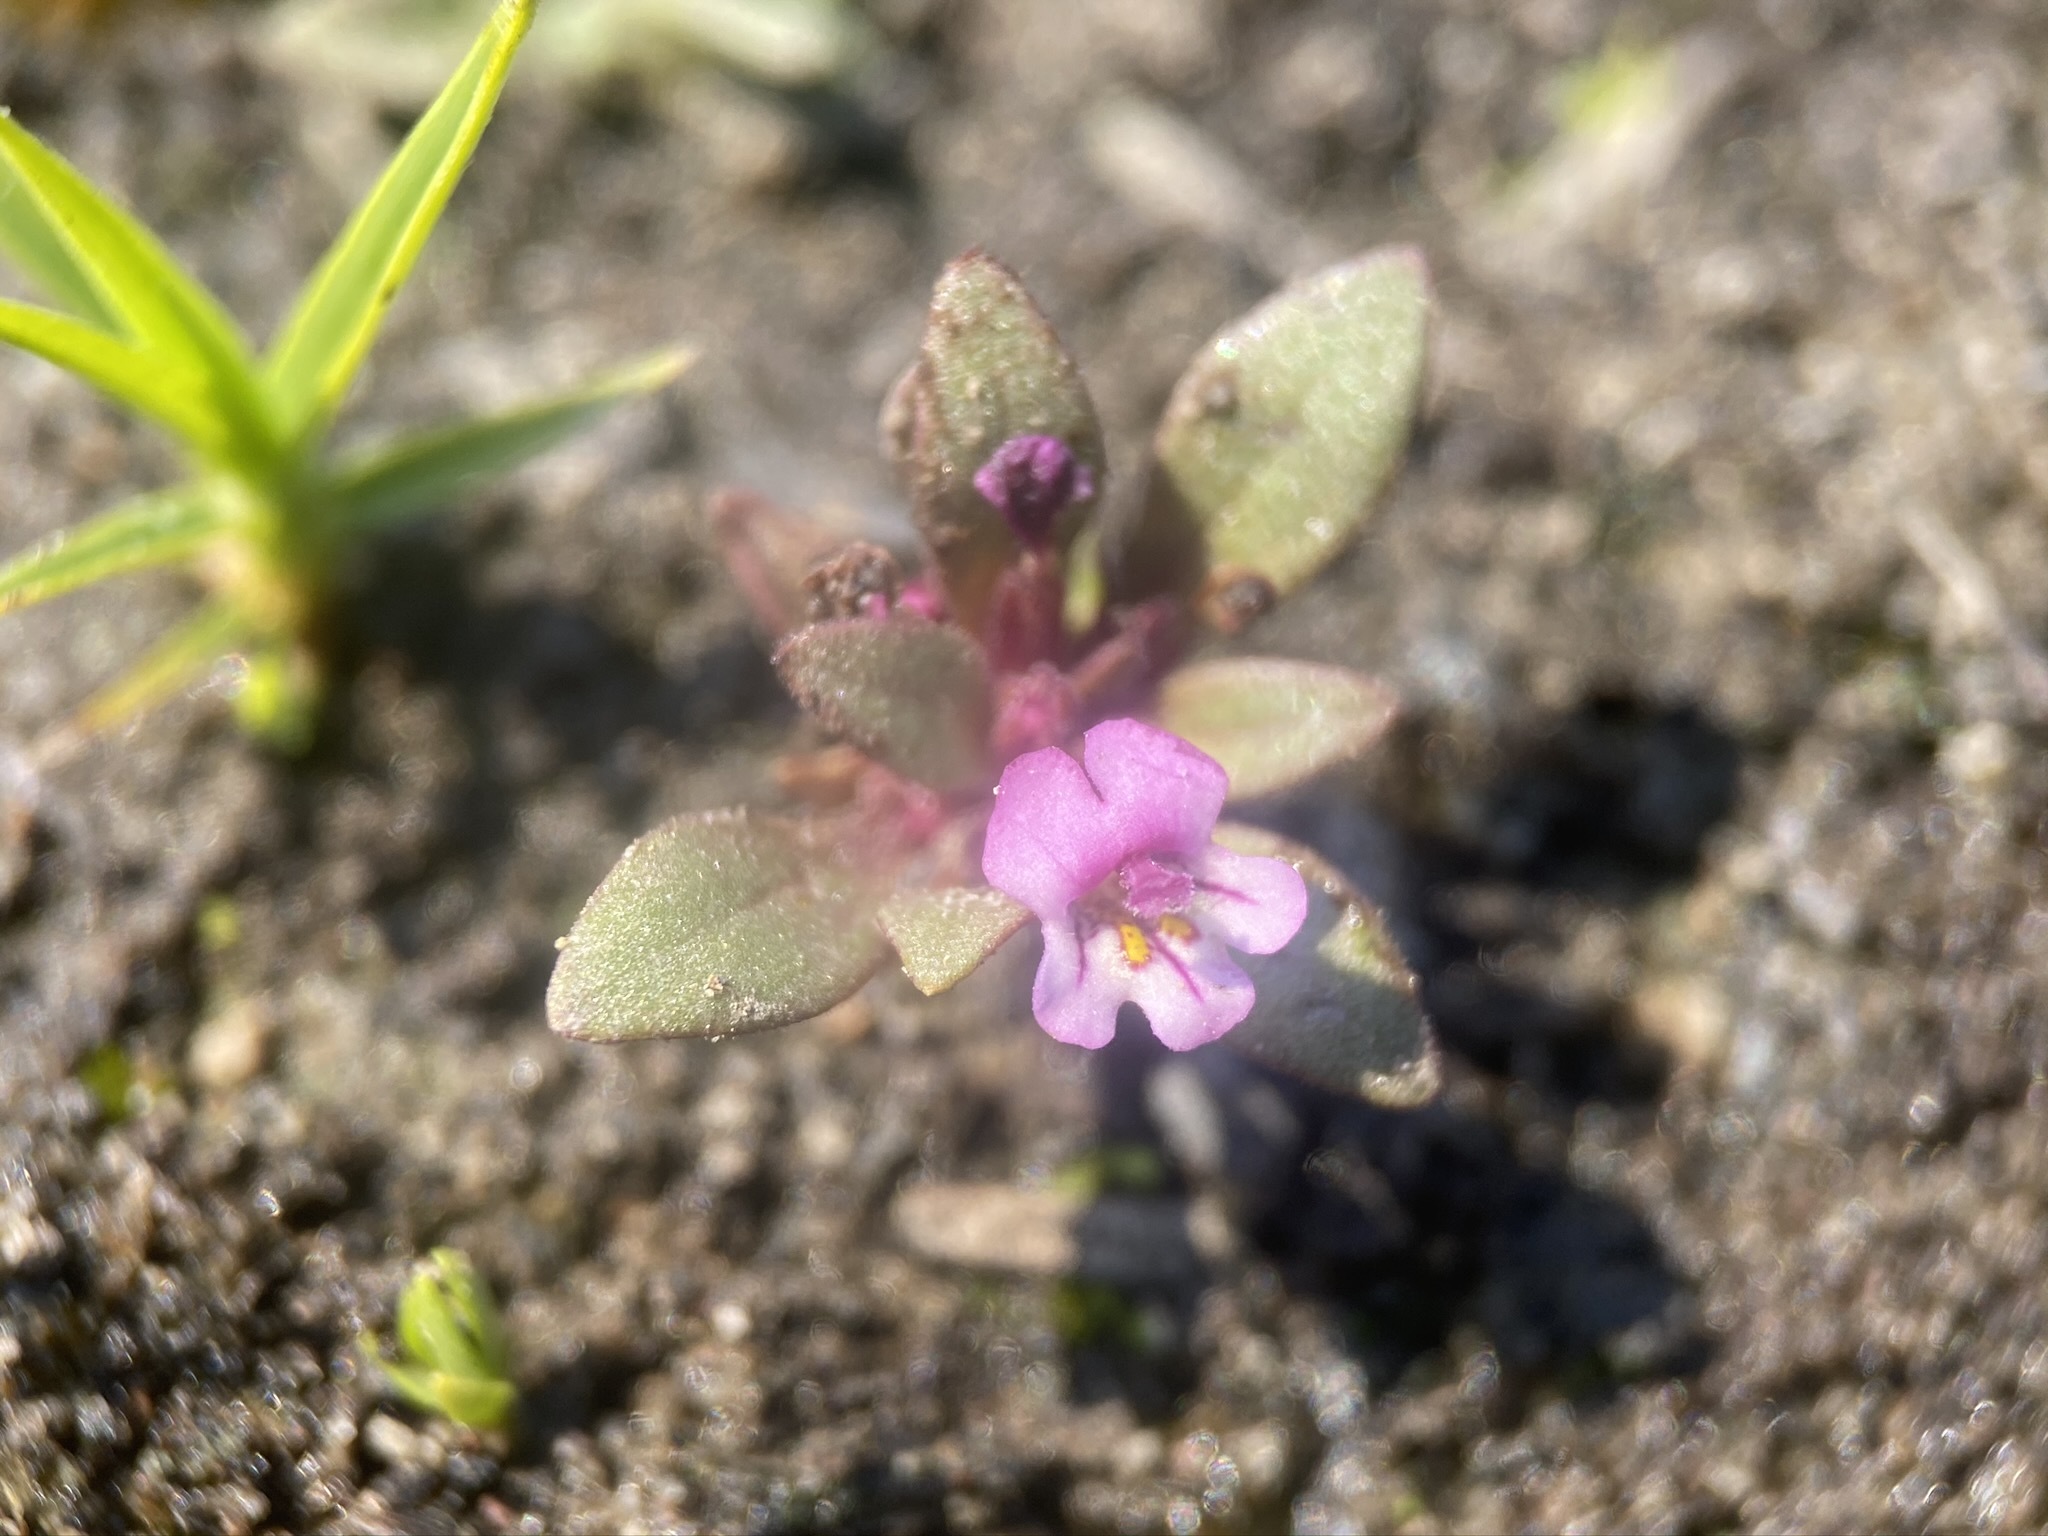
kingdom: Plantae
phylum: Tracheophyta
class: Magnoliopsida
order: Lamiales
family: Phrymaceae
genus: Diplacus
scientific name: Diplacus jepsonii
